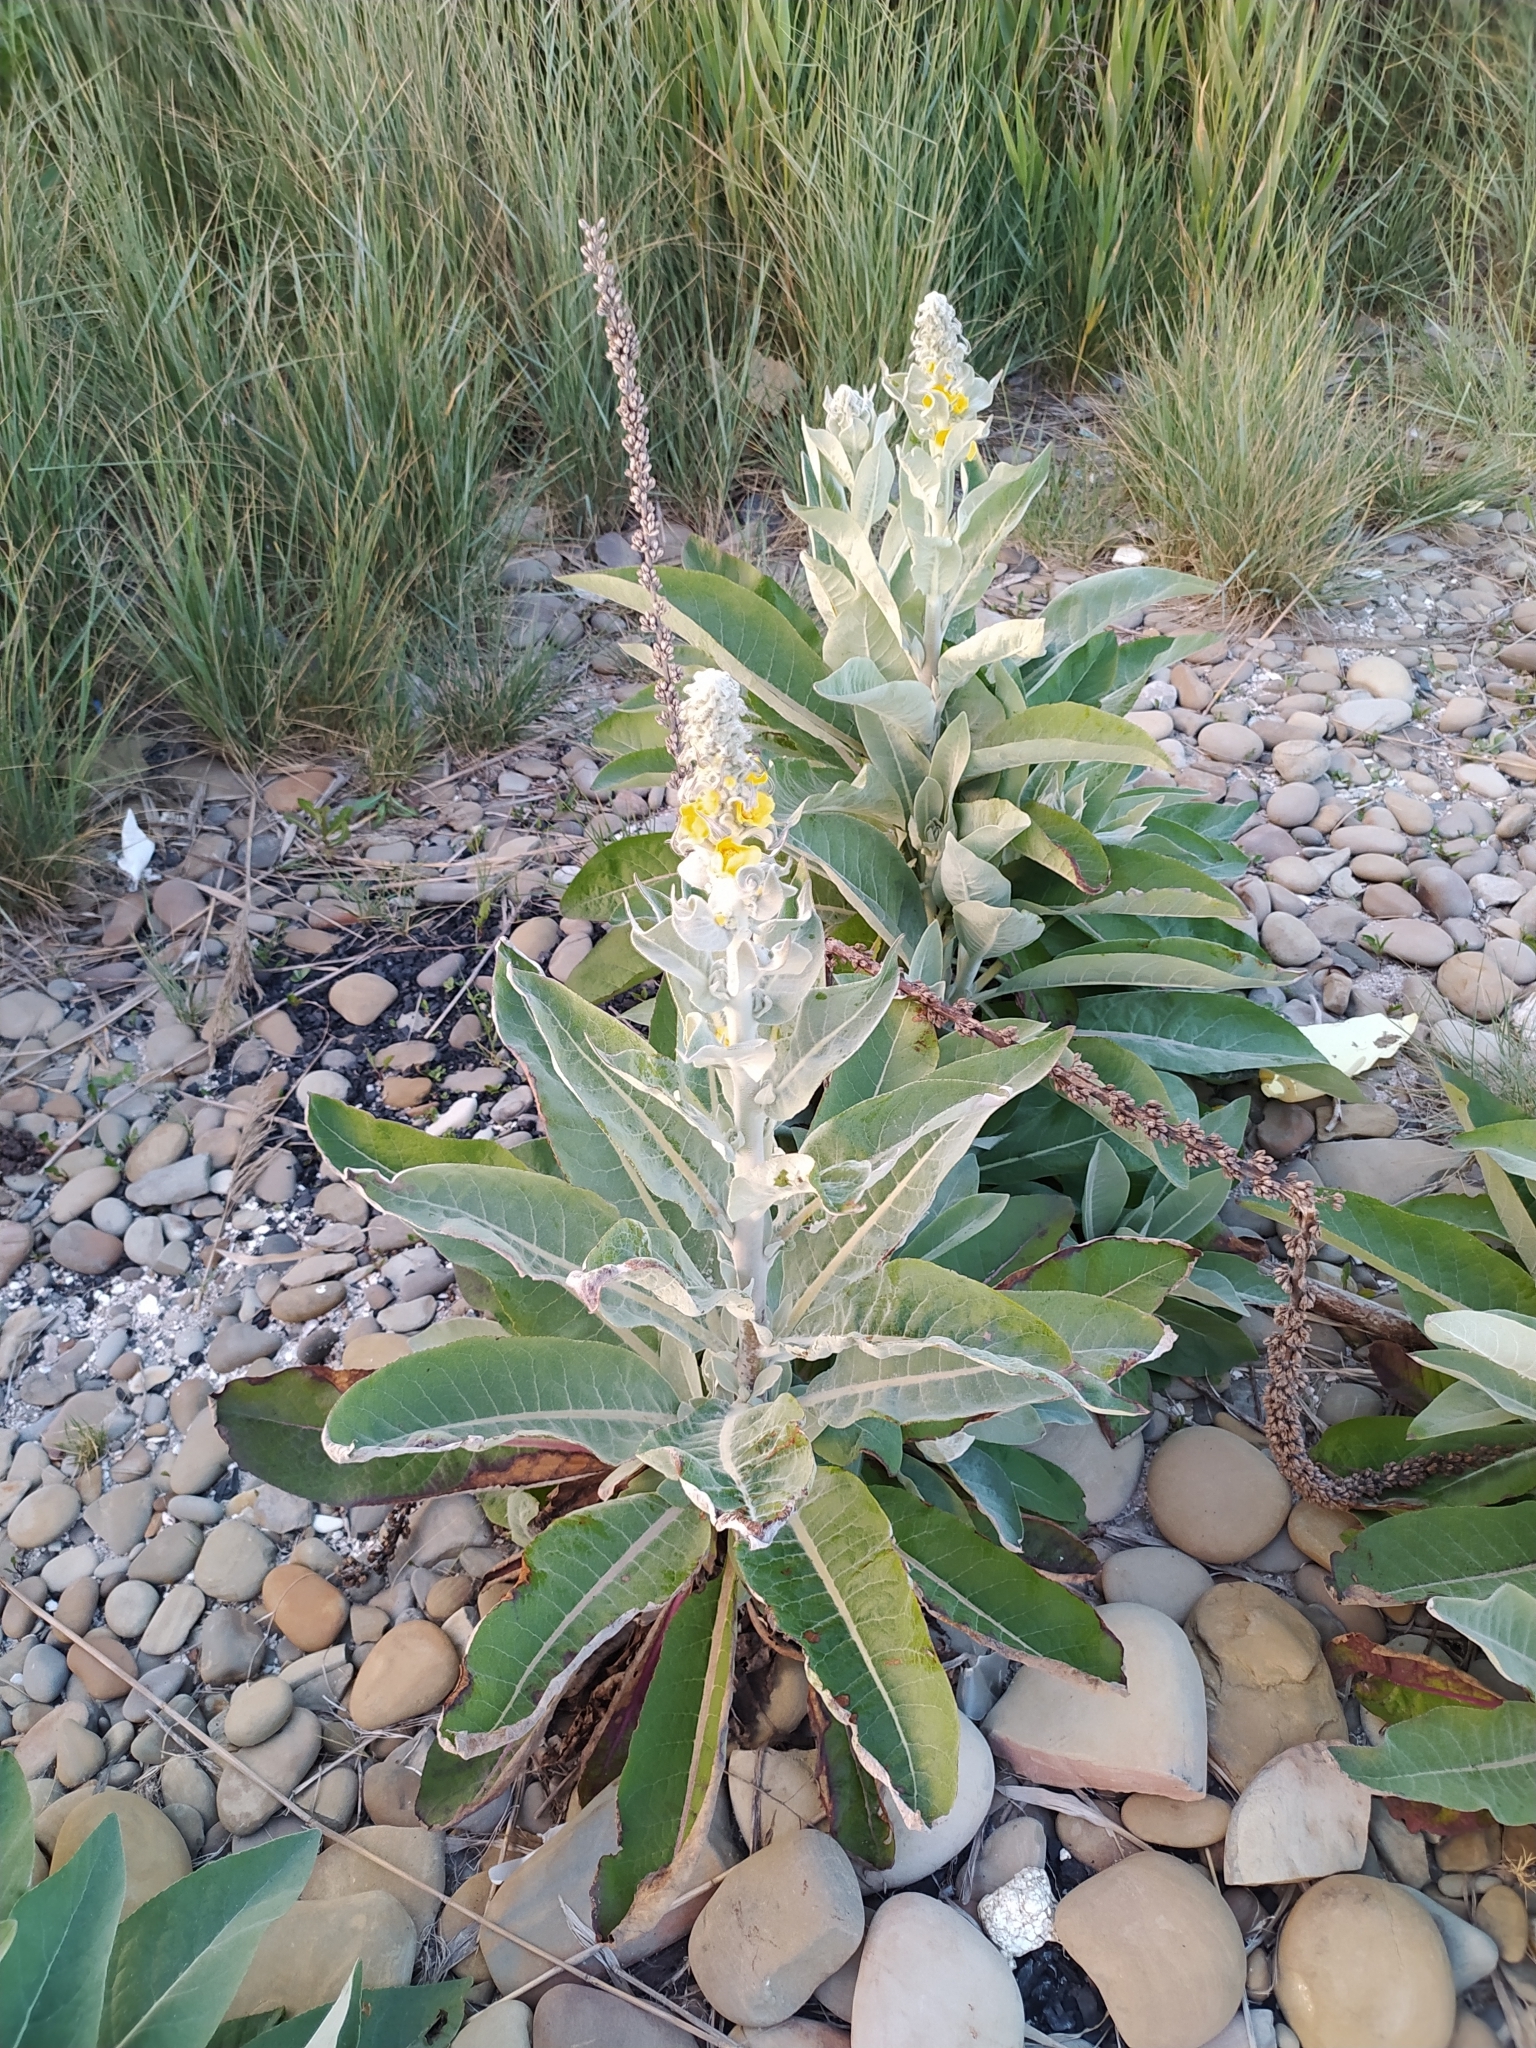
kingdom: Plantae
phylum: Tracheophyta
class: Magnoliopsida
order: Lamiales
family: Scrophulariaceae
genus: Verbascum
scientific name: Verbascum gnaphalodes
